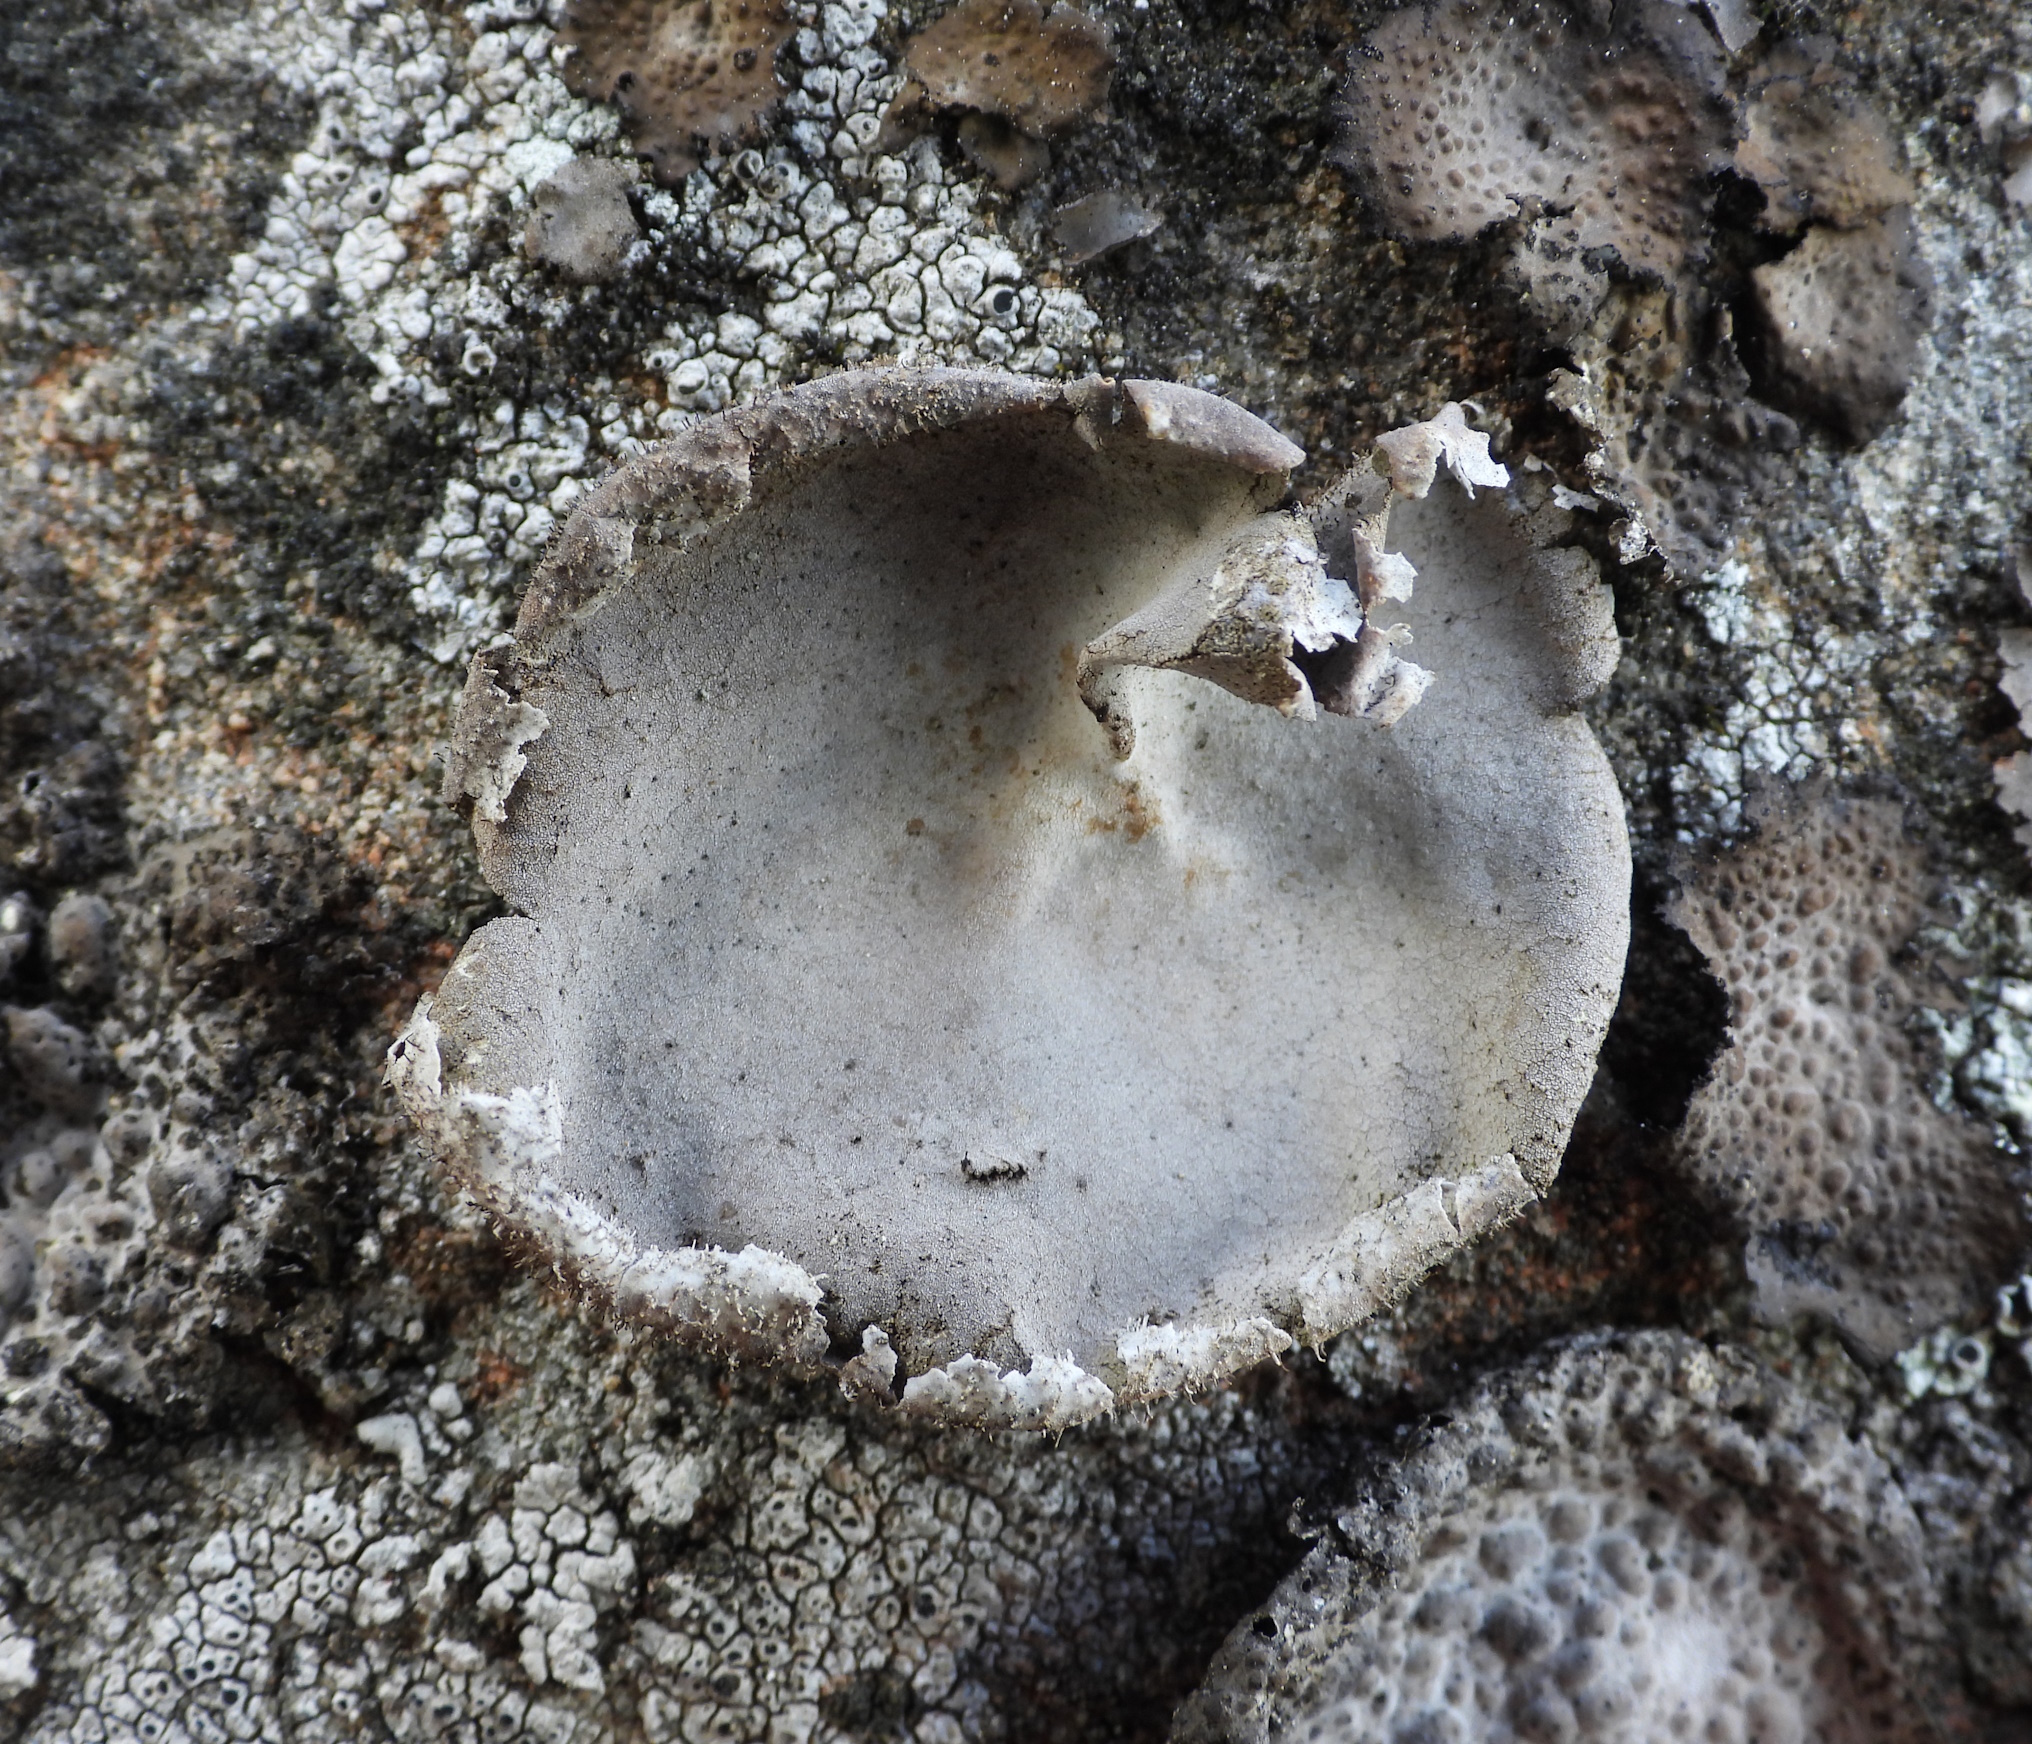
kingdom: Fungi
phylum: Ascomycota
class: Lecanoromycetes
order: Umbilicariales
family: Umbilicariaceae
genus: Umbilicaria
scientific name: Umbilicaria hirsuta
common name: Granulating rocktripe lichen
